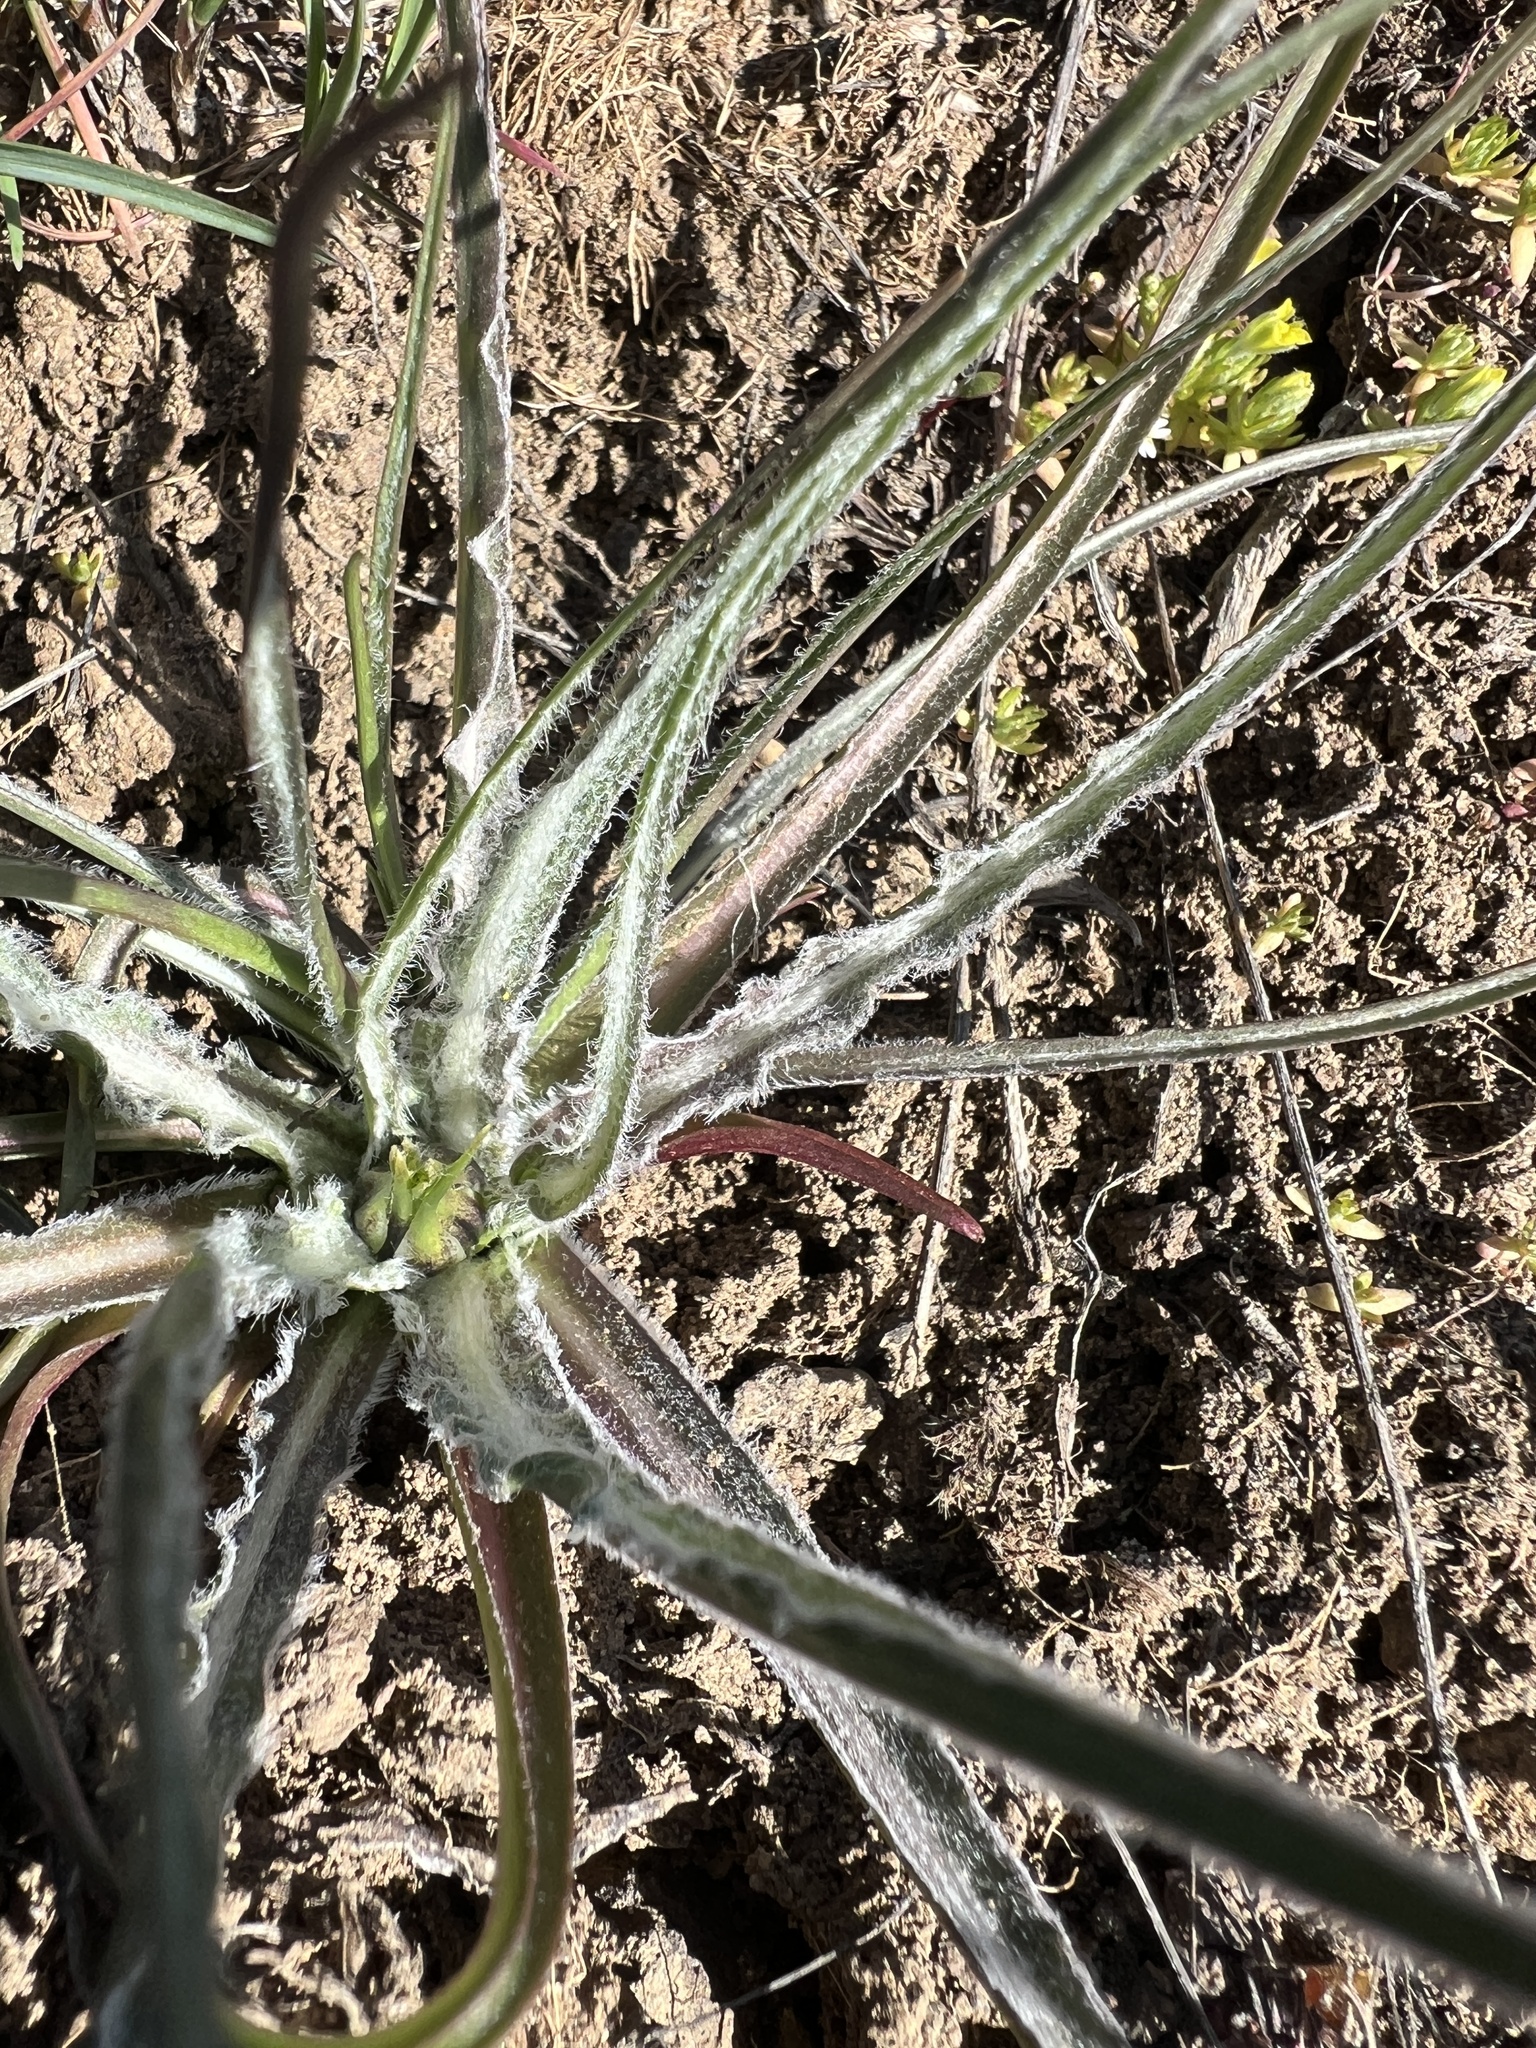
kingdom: Plantae
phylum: Tracheophyta
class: Magnoliopsida
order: Asterales
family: Asteraceae
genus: Microseris
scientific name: Microseris troximoides
